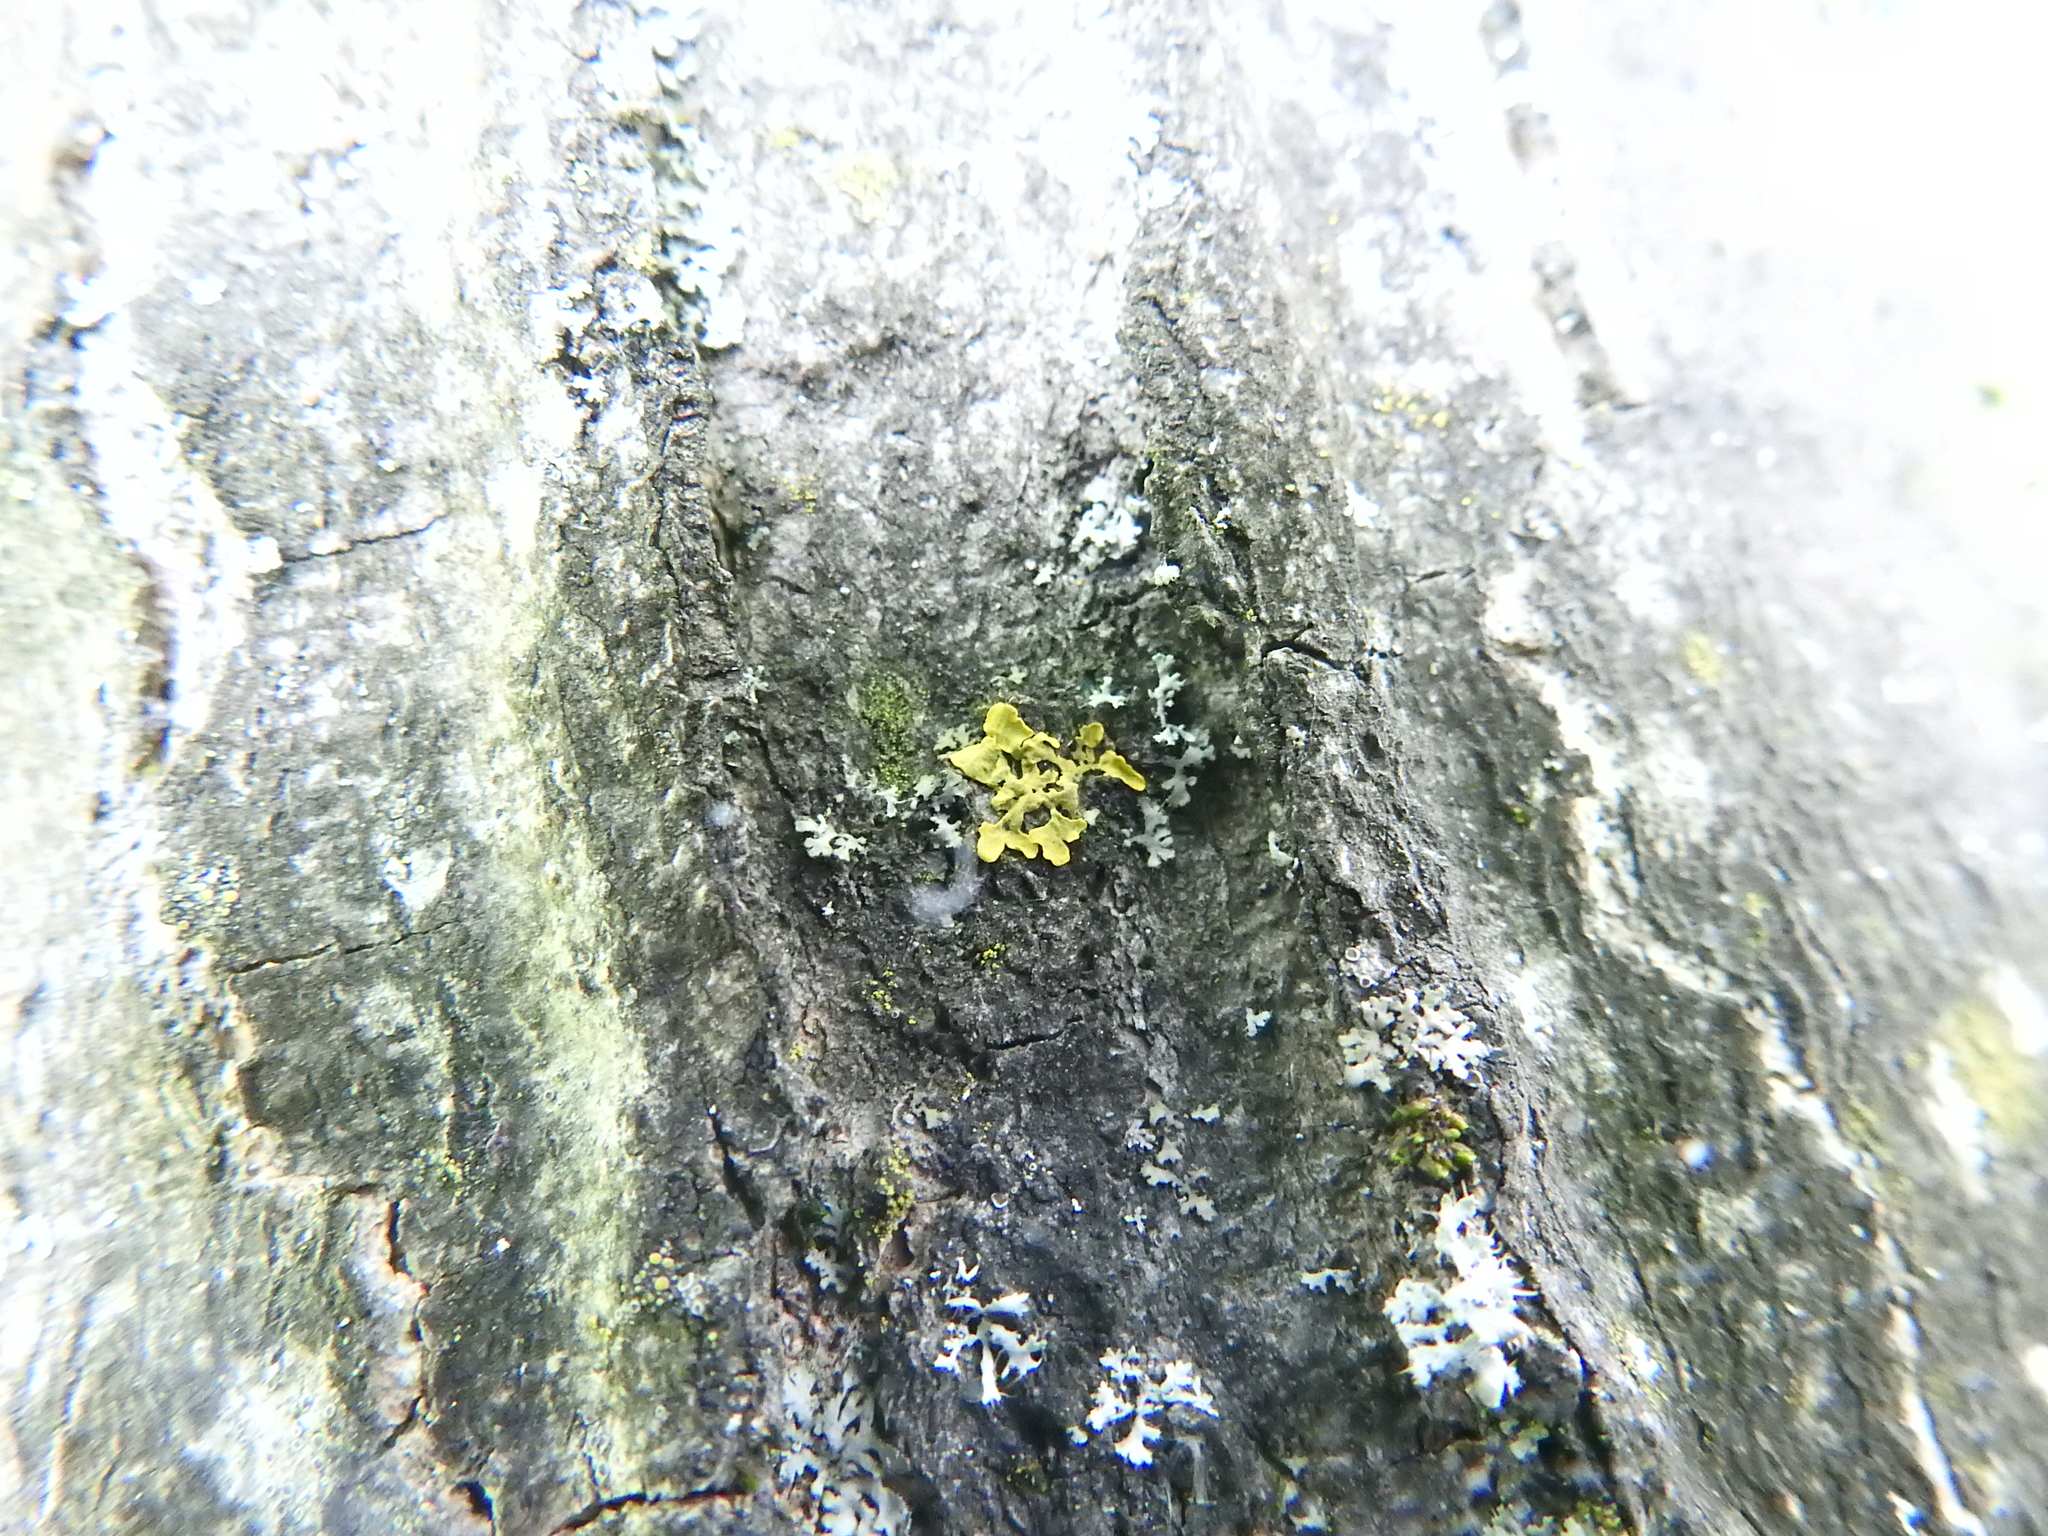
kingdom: Fungi
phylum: Ascomycota
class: Lecanoromycetes
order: Lecanorales
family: Parmeliaceae
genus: Vulpicida
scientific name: Vulpicida pinastri
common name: Powdered sunshine lichen
